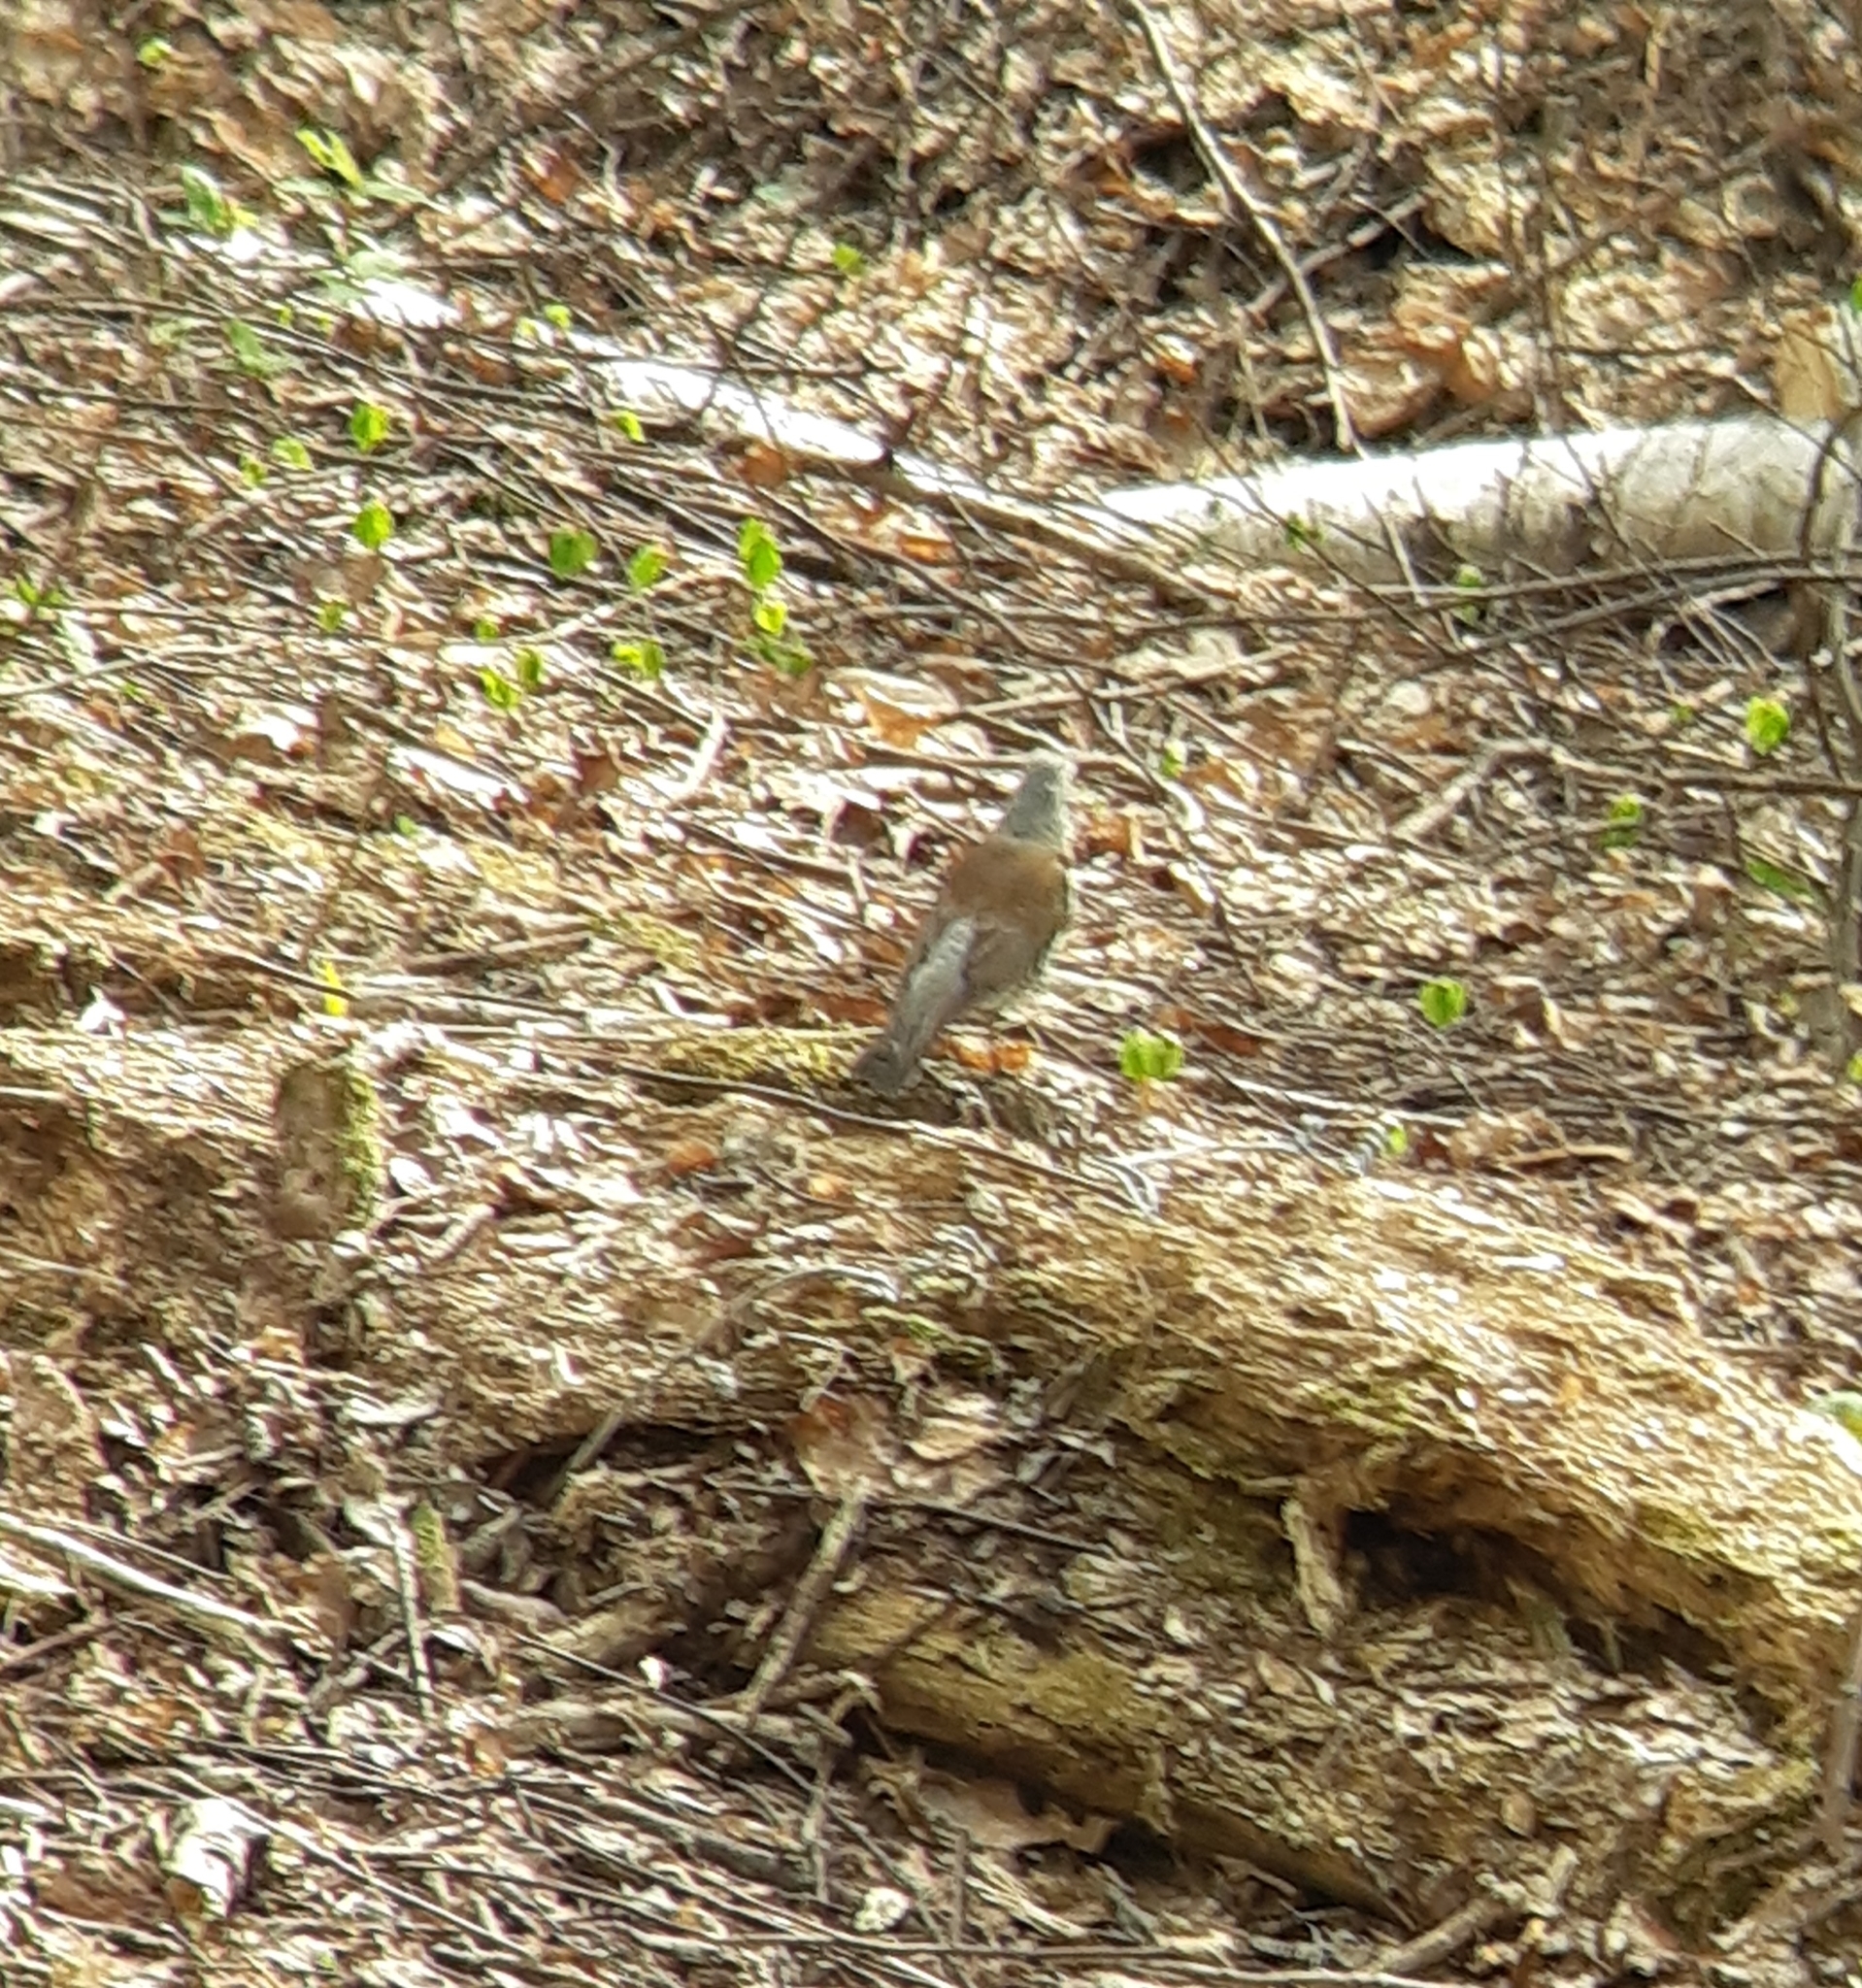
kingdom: Animalia
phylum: Chordata
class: Aves
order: Passeriformes
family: Turdidae
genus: Turdus
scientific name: Turdus pilaris
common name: Fieldfare
